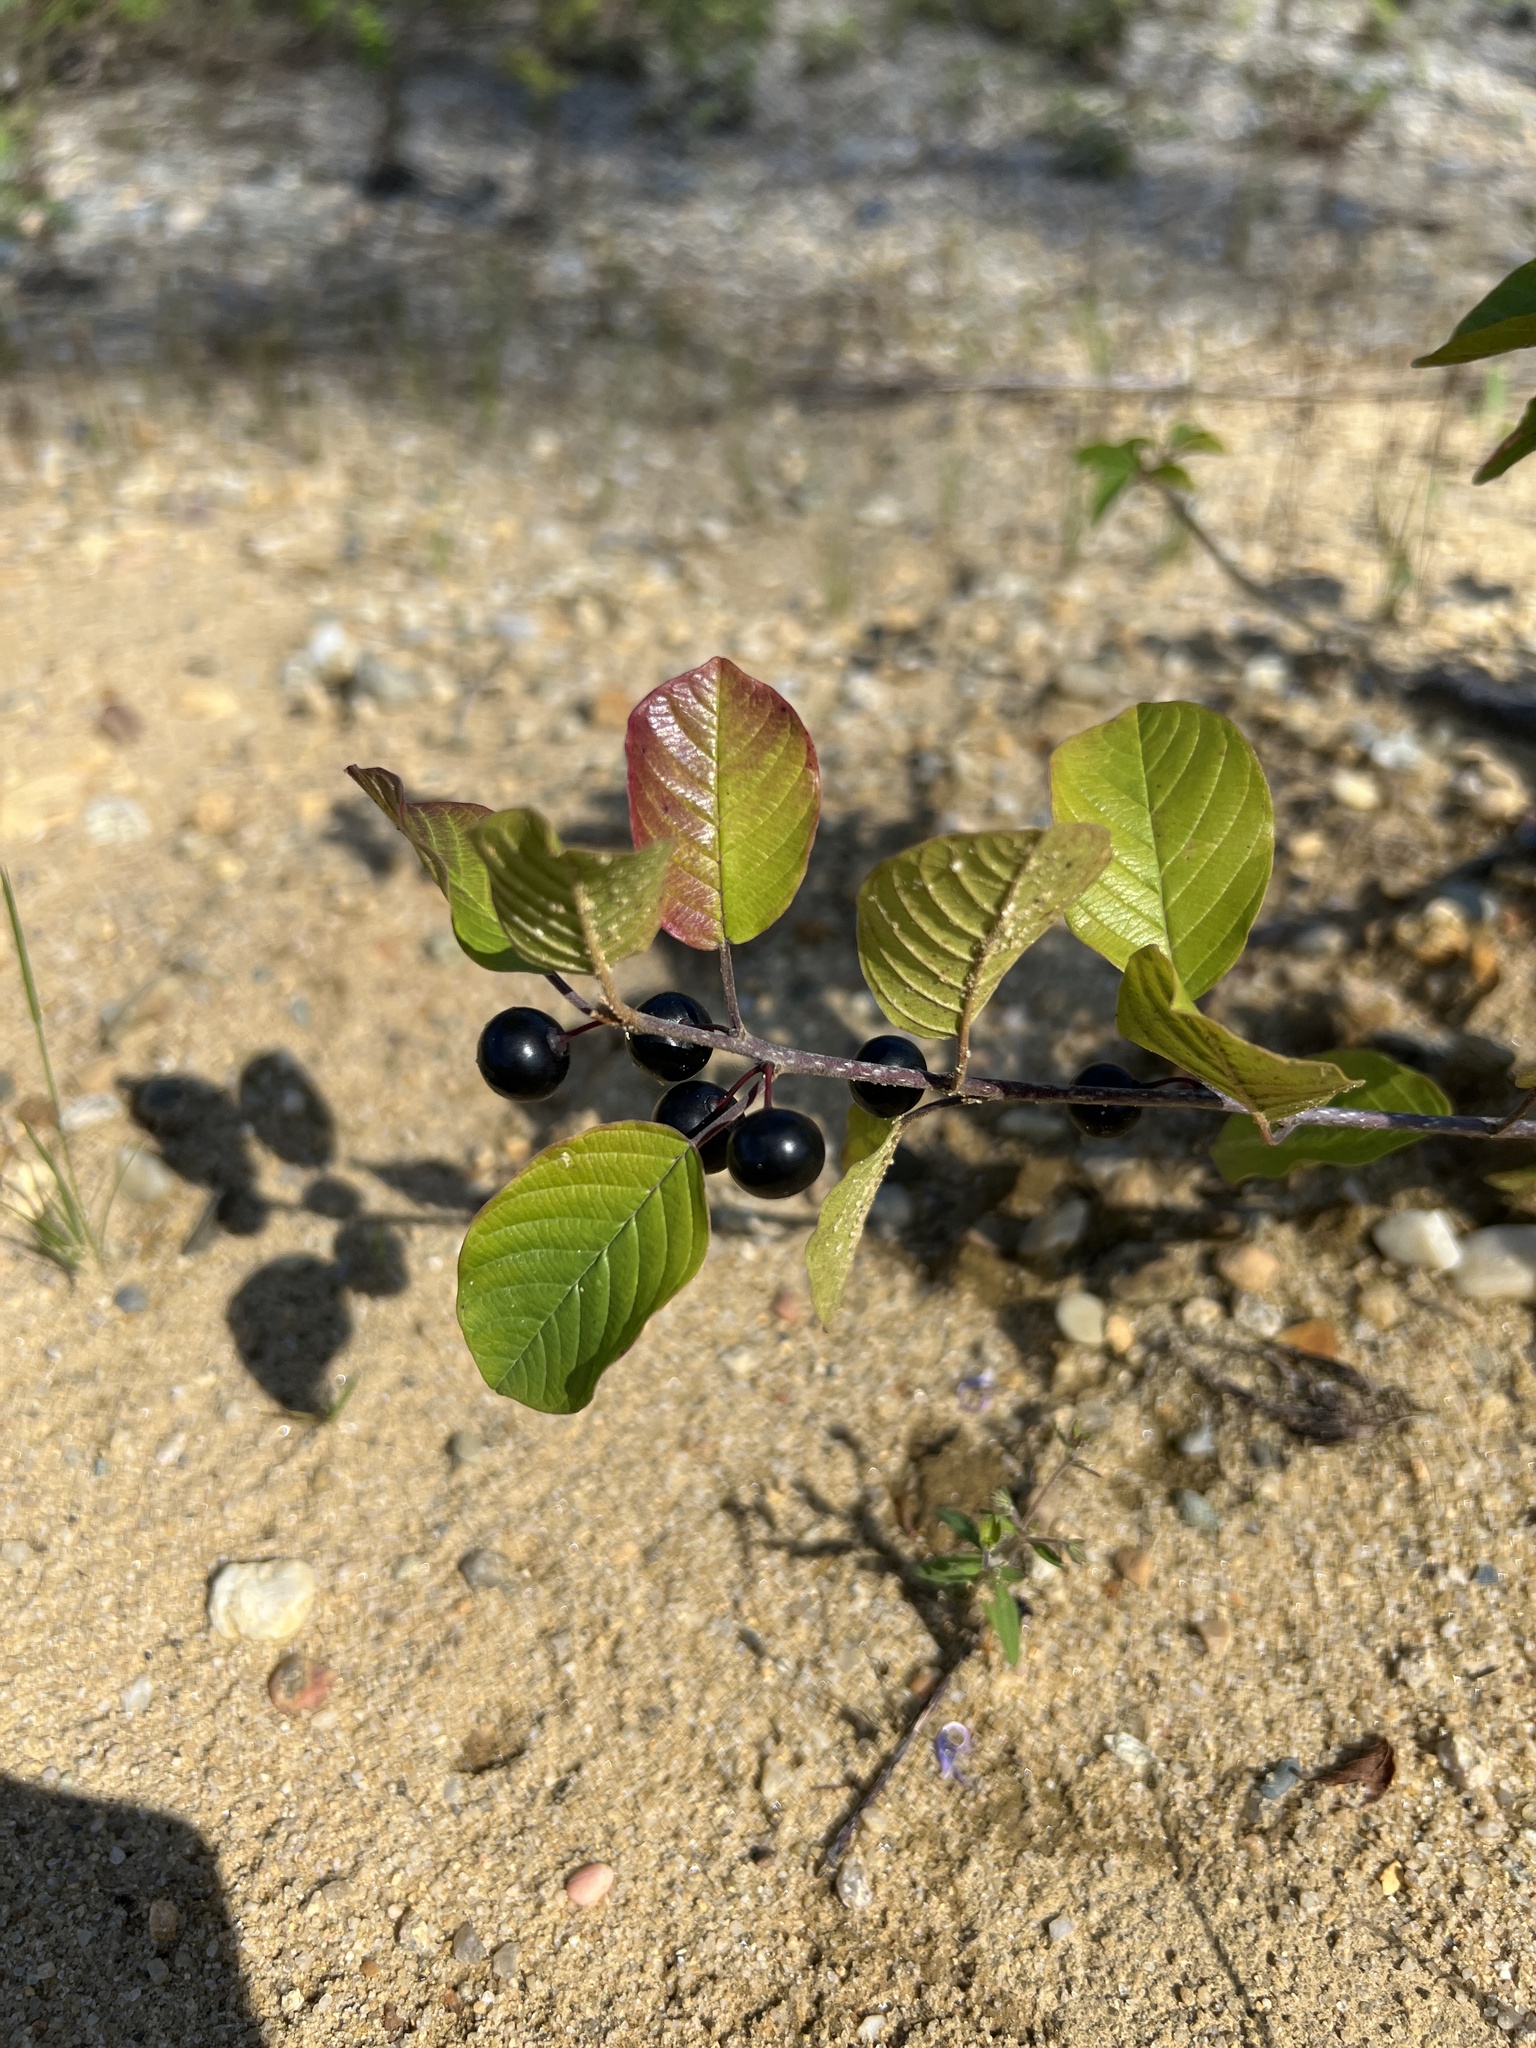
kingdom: Plantae
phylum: Tracheophyta
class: Magnoliopsida
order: Rosales
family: Rhamnaceae
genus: Frangula
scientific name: Frangula alnus
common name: Alder buckthorn
